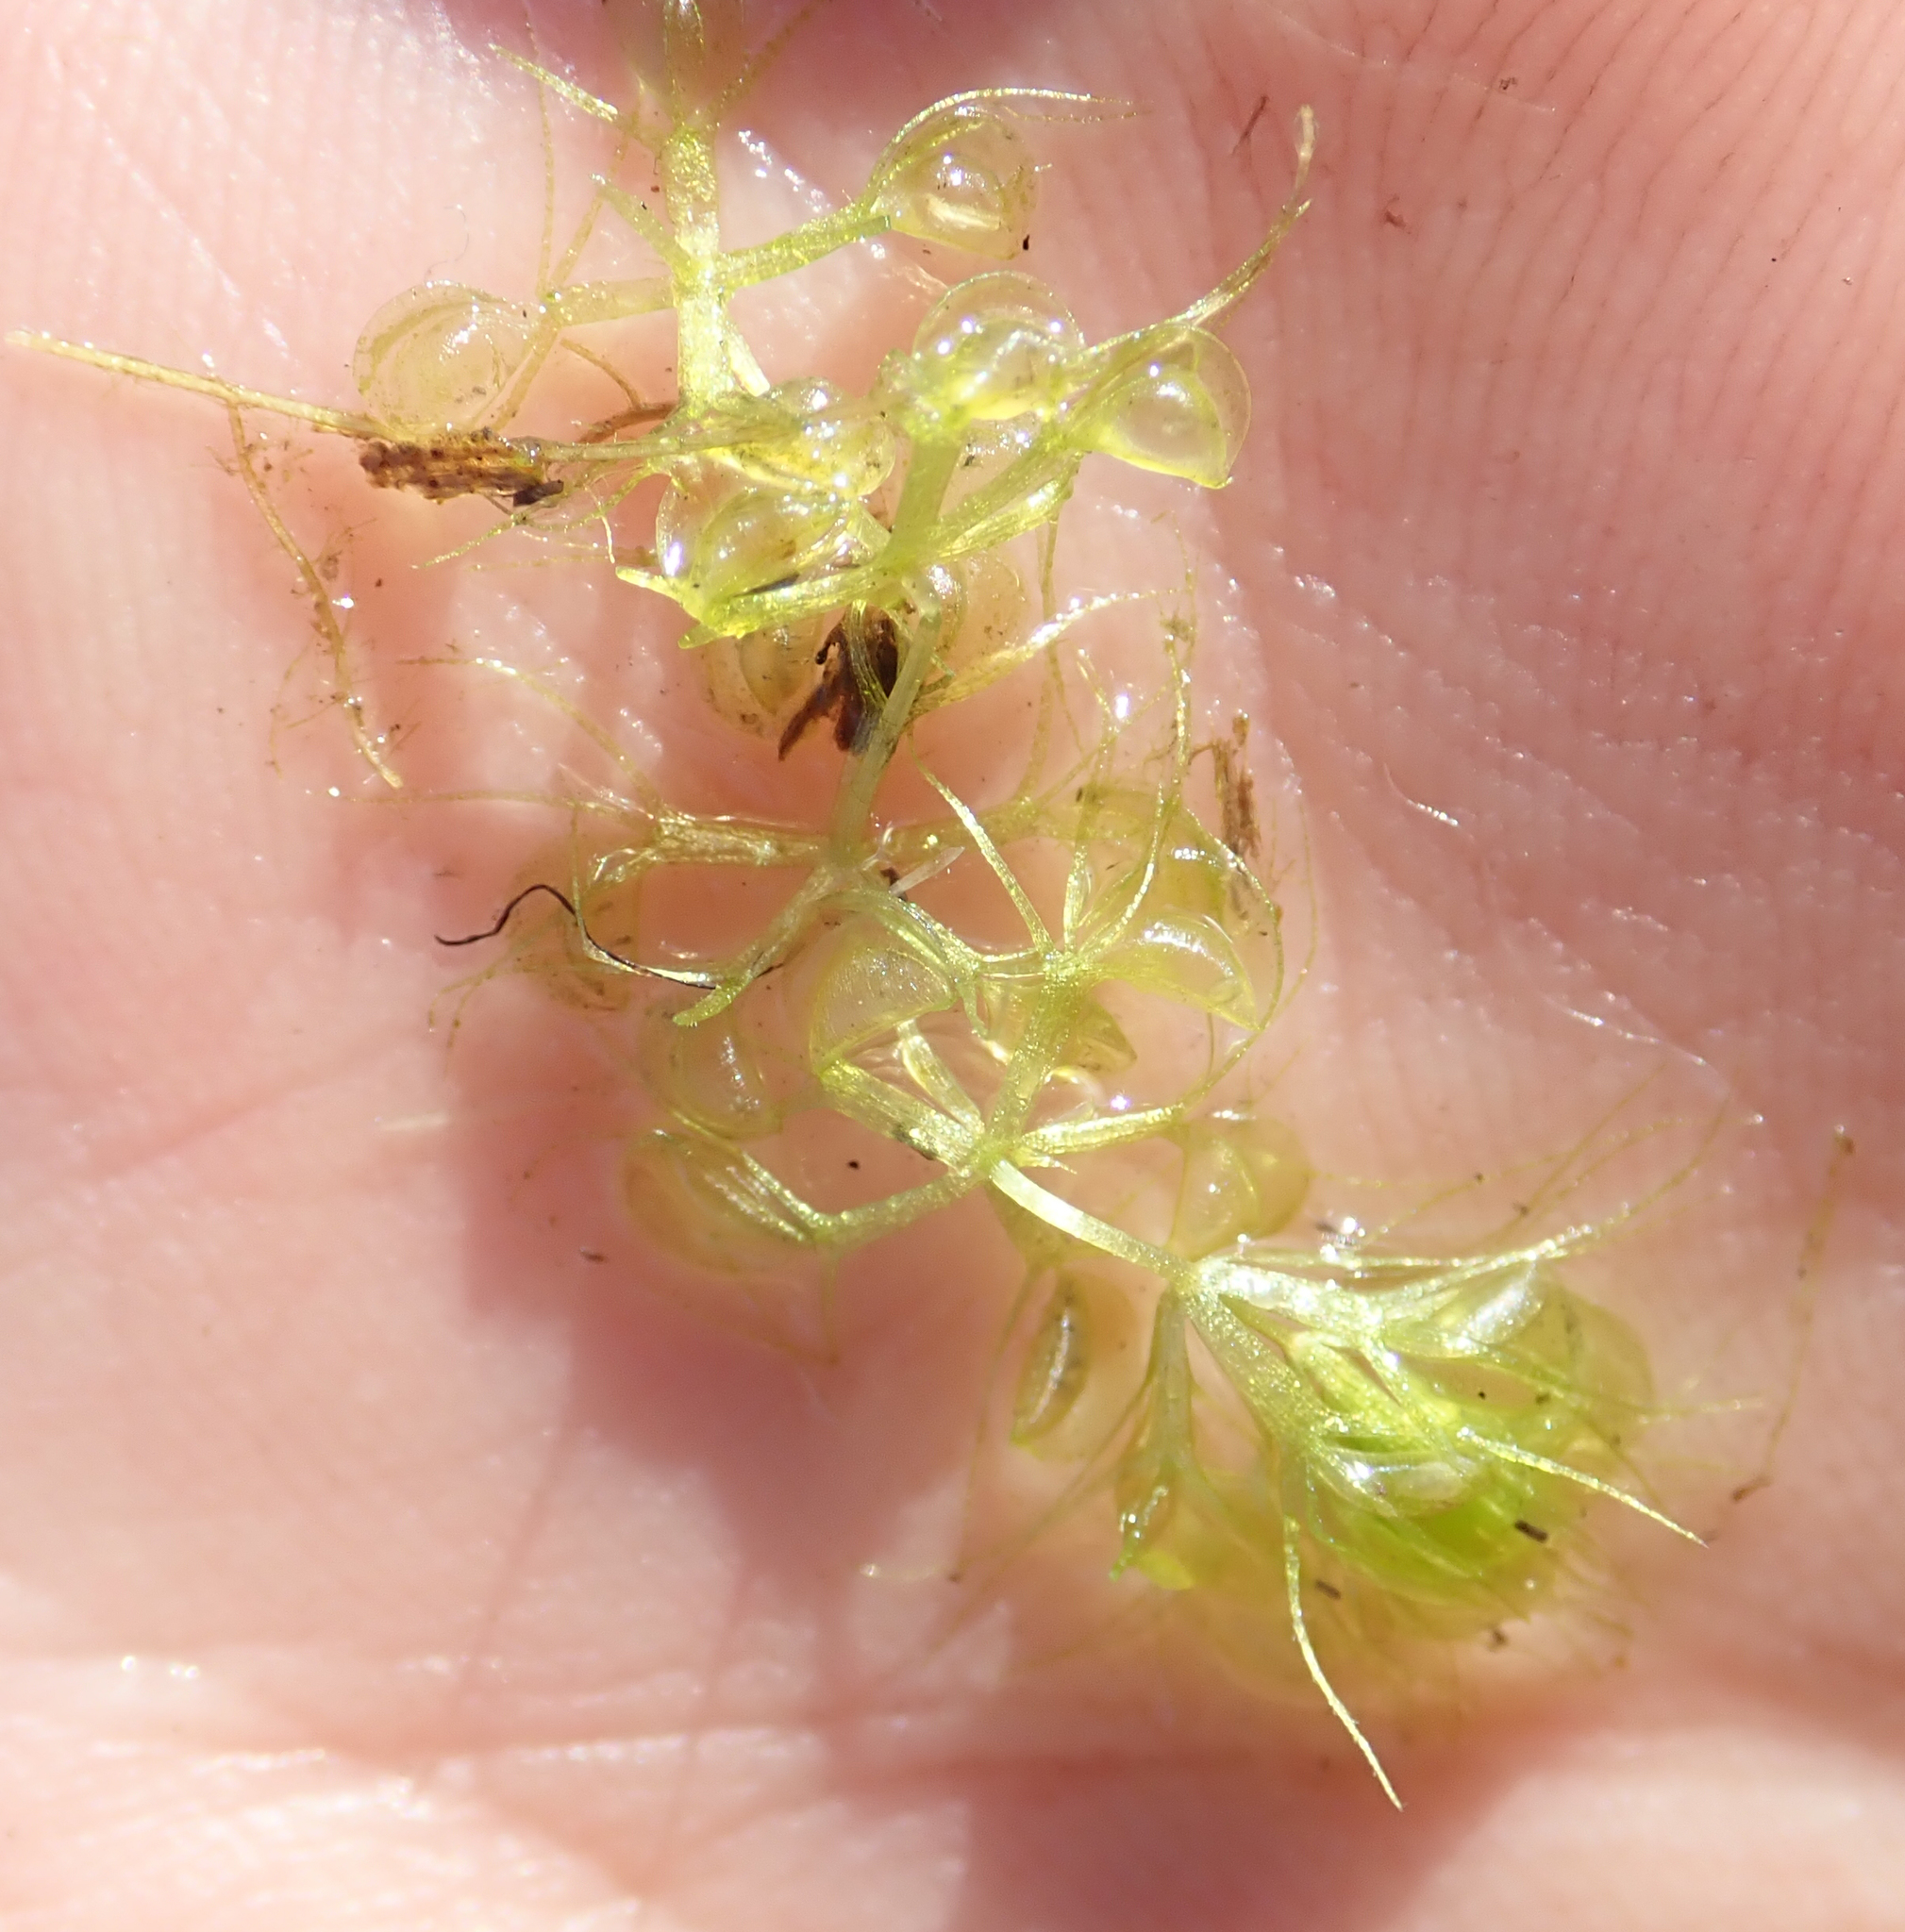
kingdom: Plantae
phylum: Tracheophyta
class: Magnoliopsida
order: Caryophyllales
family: Droseraceae
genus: Aldrovanda
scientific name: Aldrovanda vesiculosa
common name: Waterwheel plant
